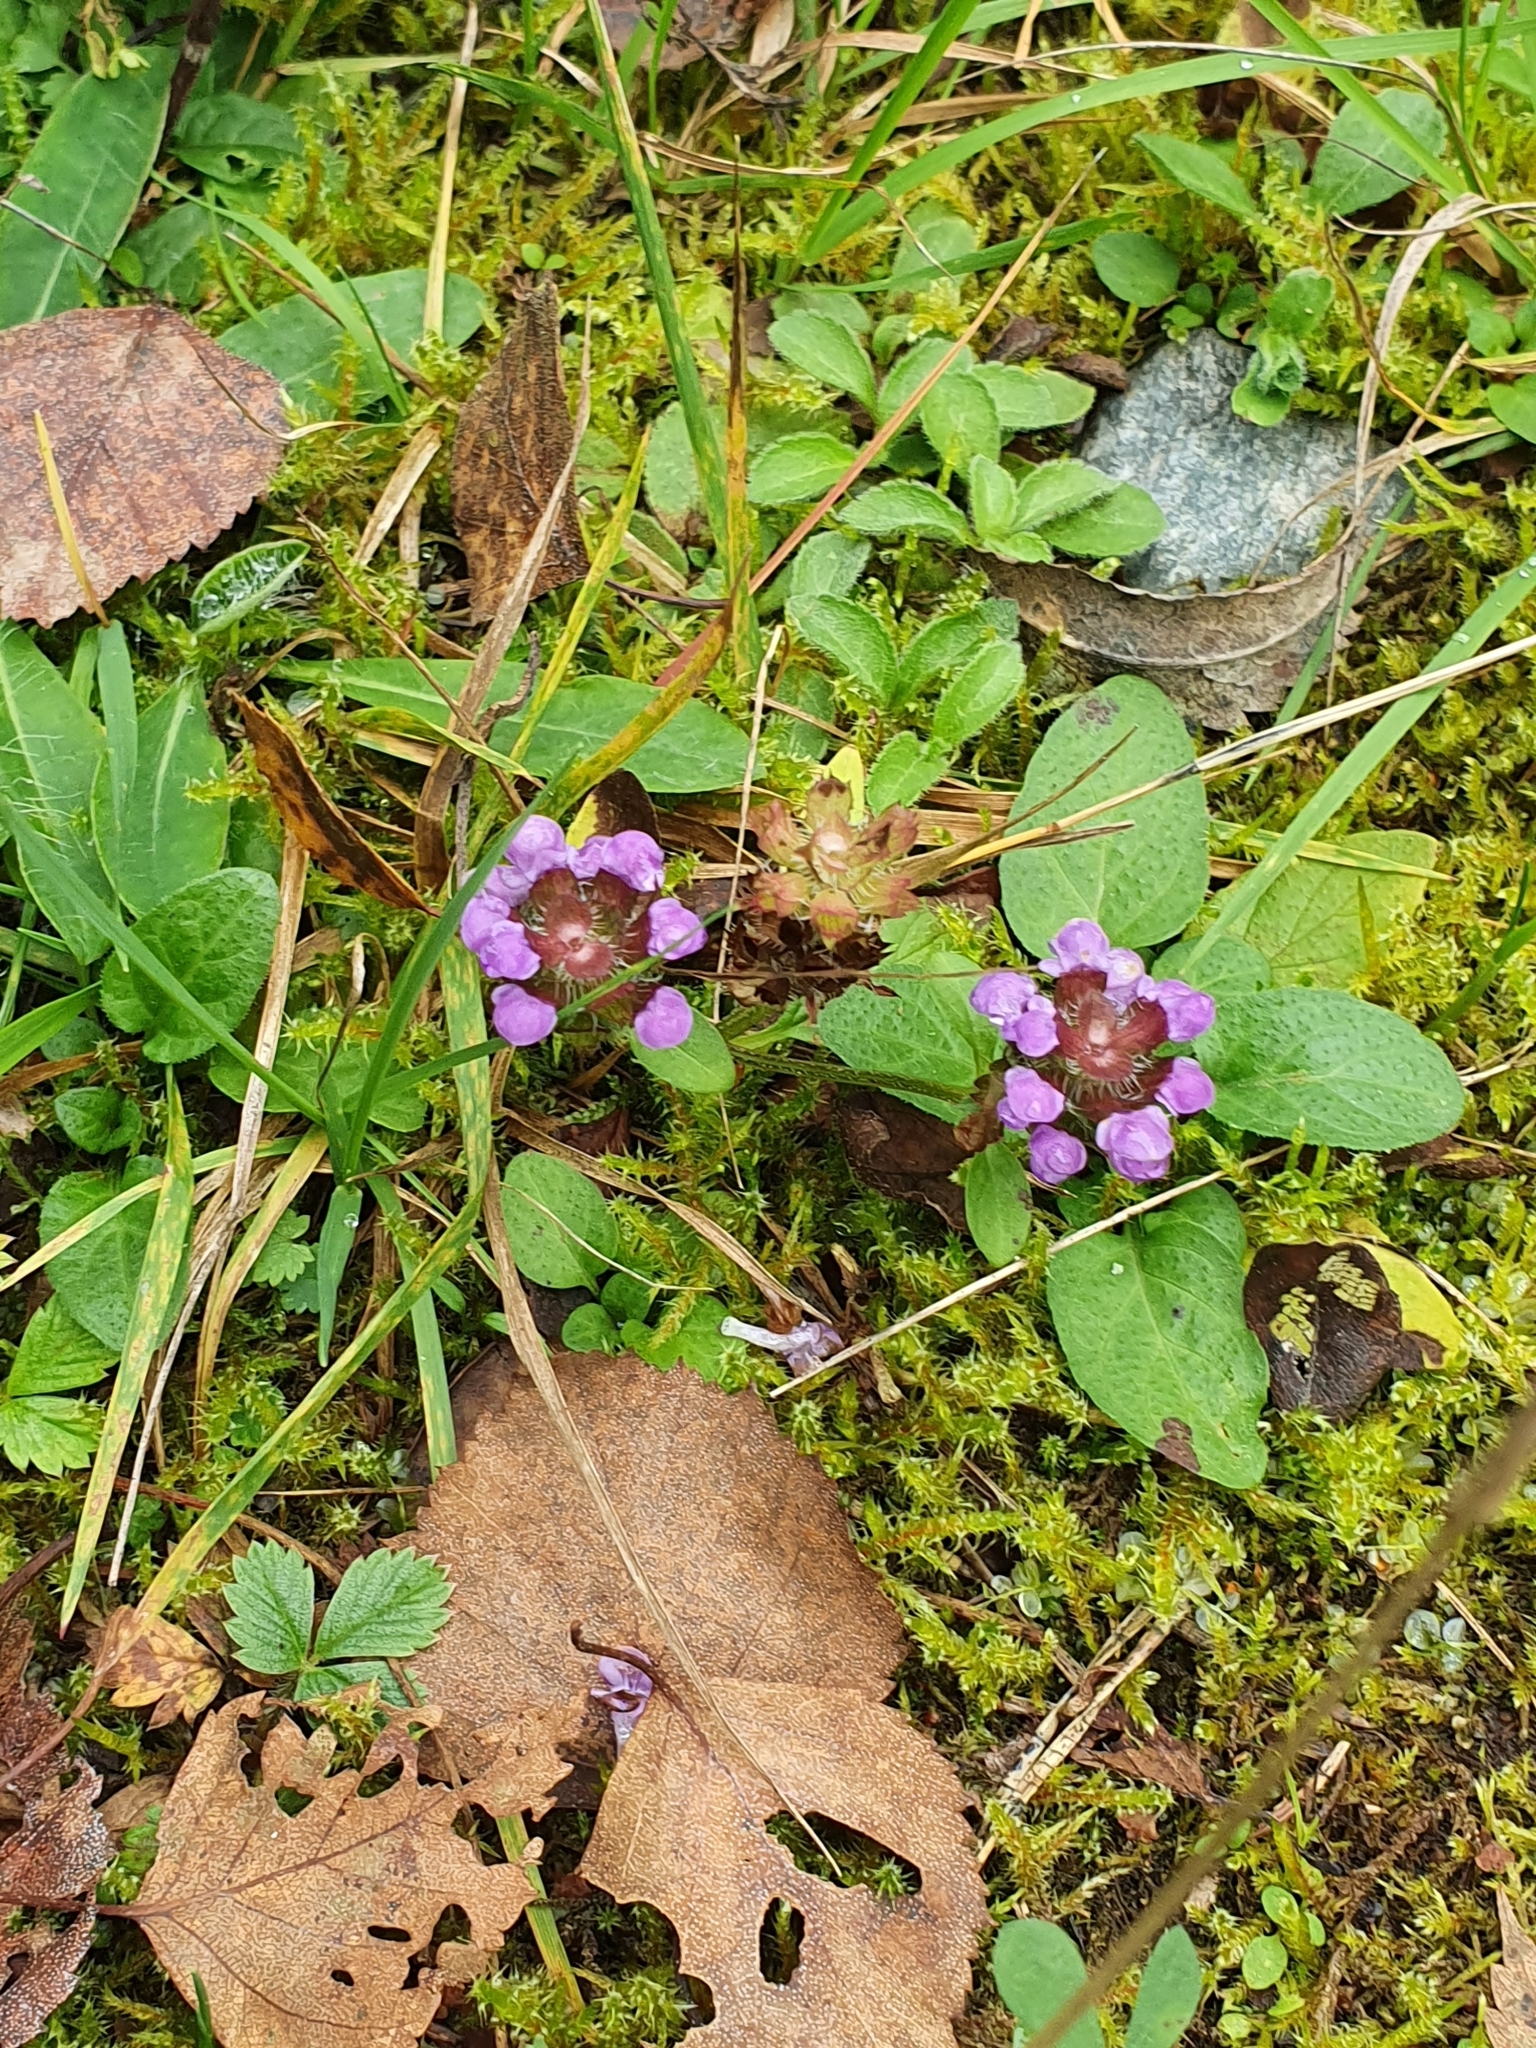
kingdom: Plantae
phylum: Tracheophyta
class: Magnoliopsida
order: Lamiales
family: Lamiaceae
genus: Prunella
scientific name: Prunella vulgaris
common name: Heal-all
